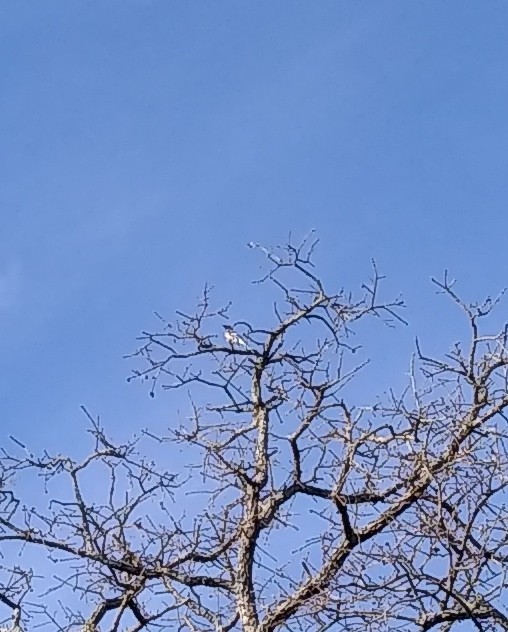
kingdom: Animalia
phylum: Chordata
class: Aves
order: Passeriformes
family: Corvidae
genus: Cyanocitta
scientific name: Cyanocitta cristata
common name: Blue jay
